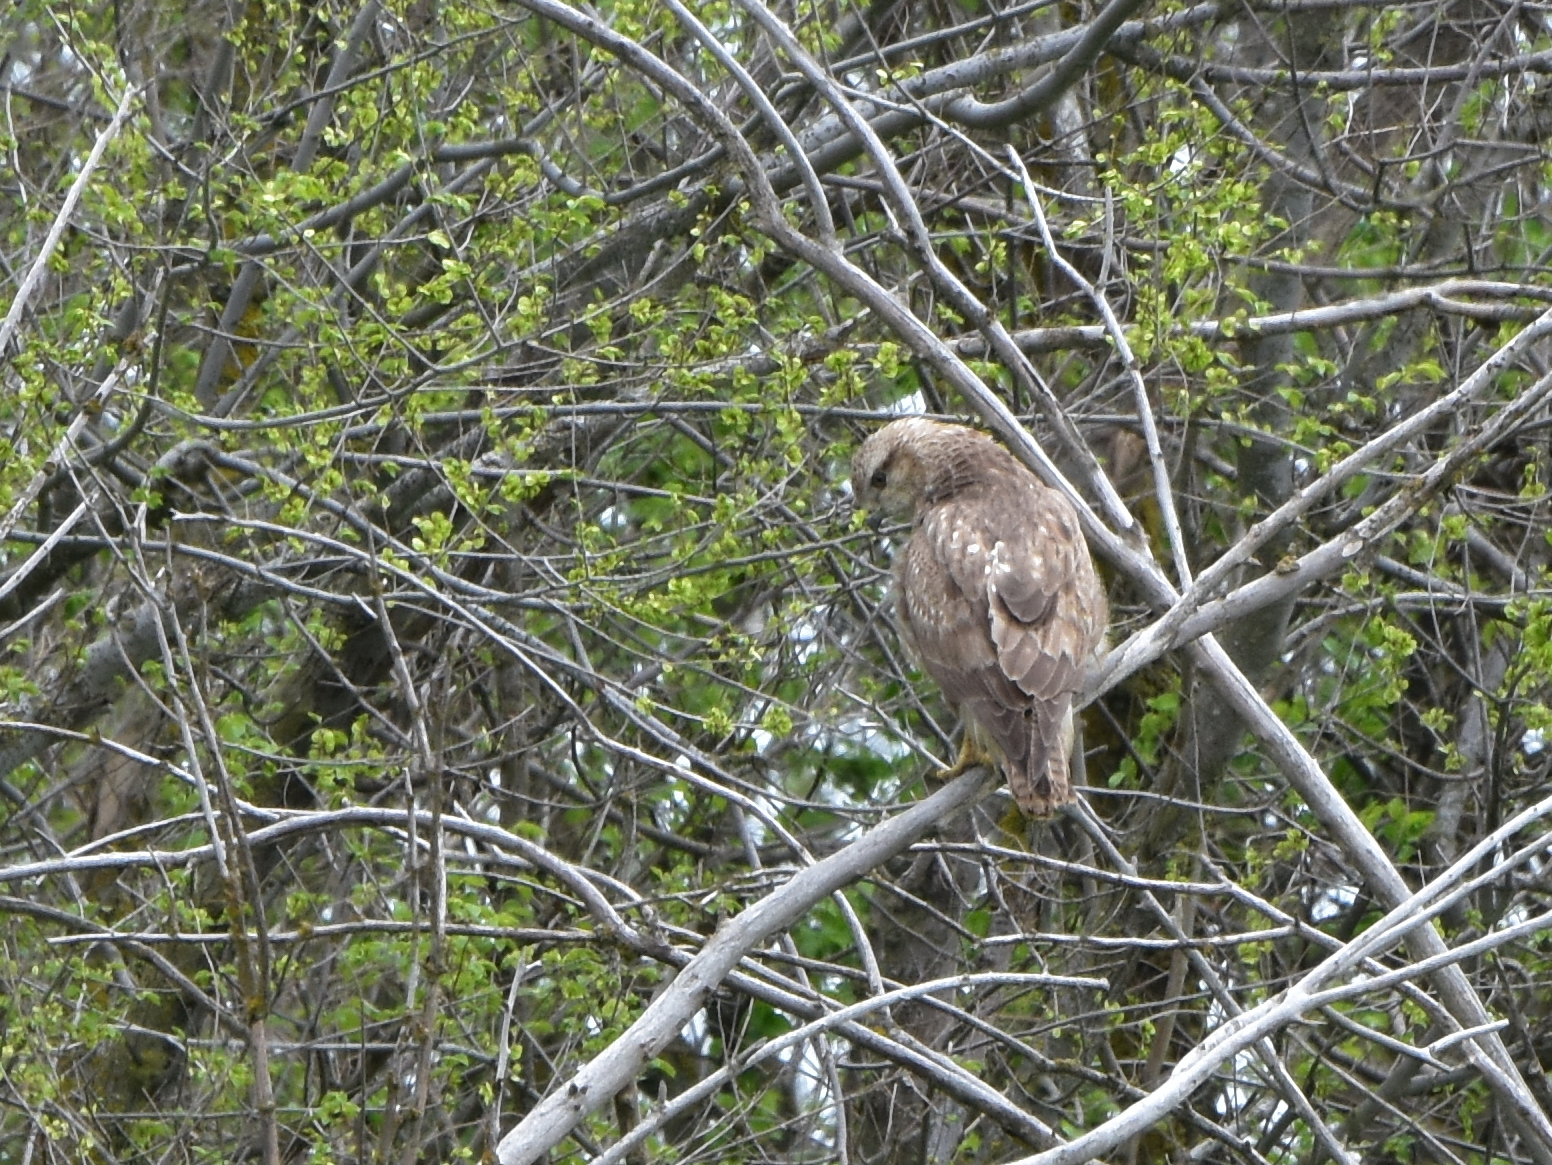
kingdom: Animalia
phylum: Chordata
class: Aves
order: Accipitriformes
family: Accipitridae
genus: Buteo
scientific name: Buteo buteo
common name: Common buzzard
